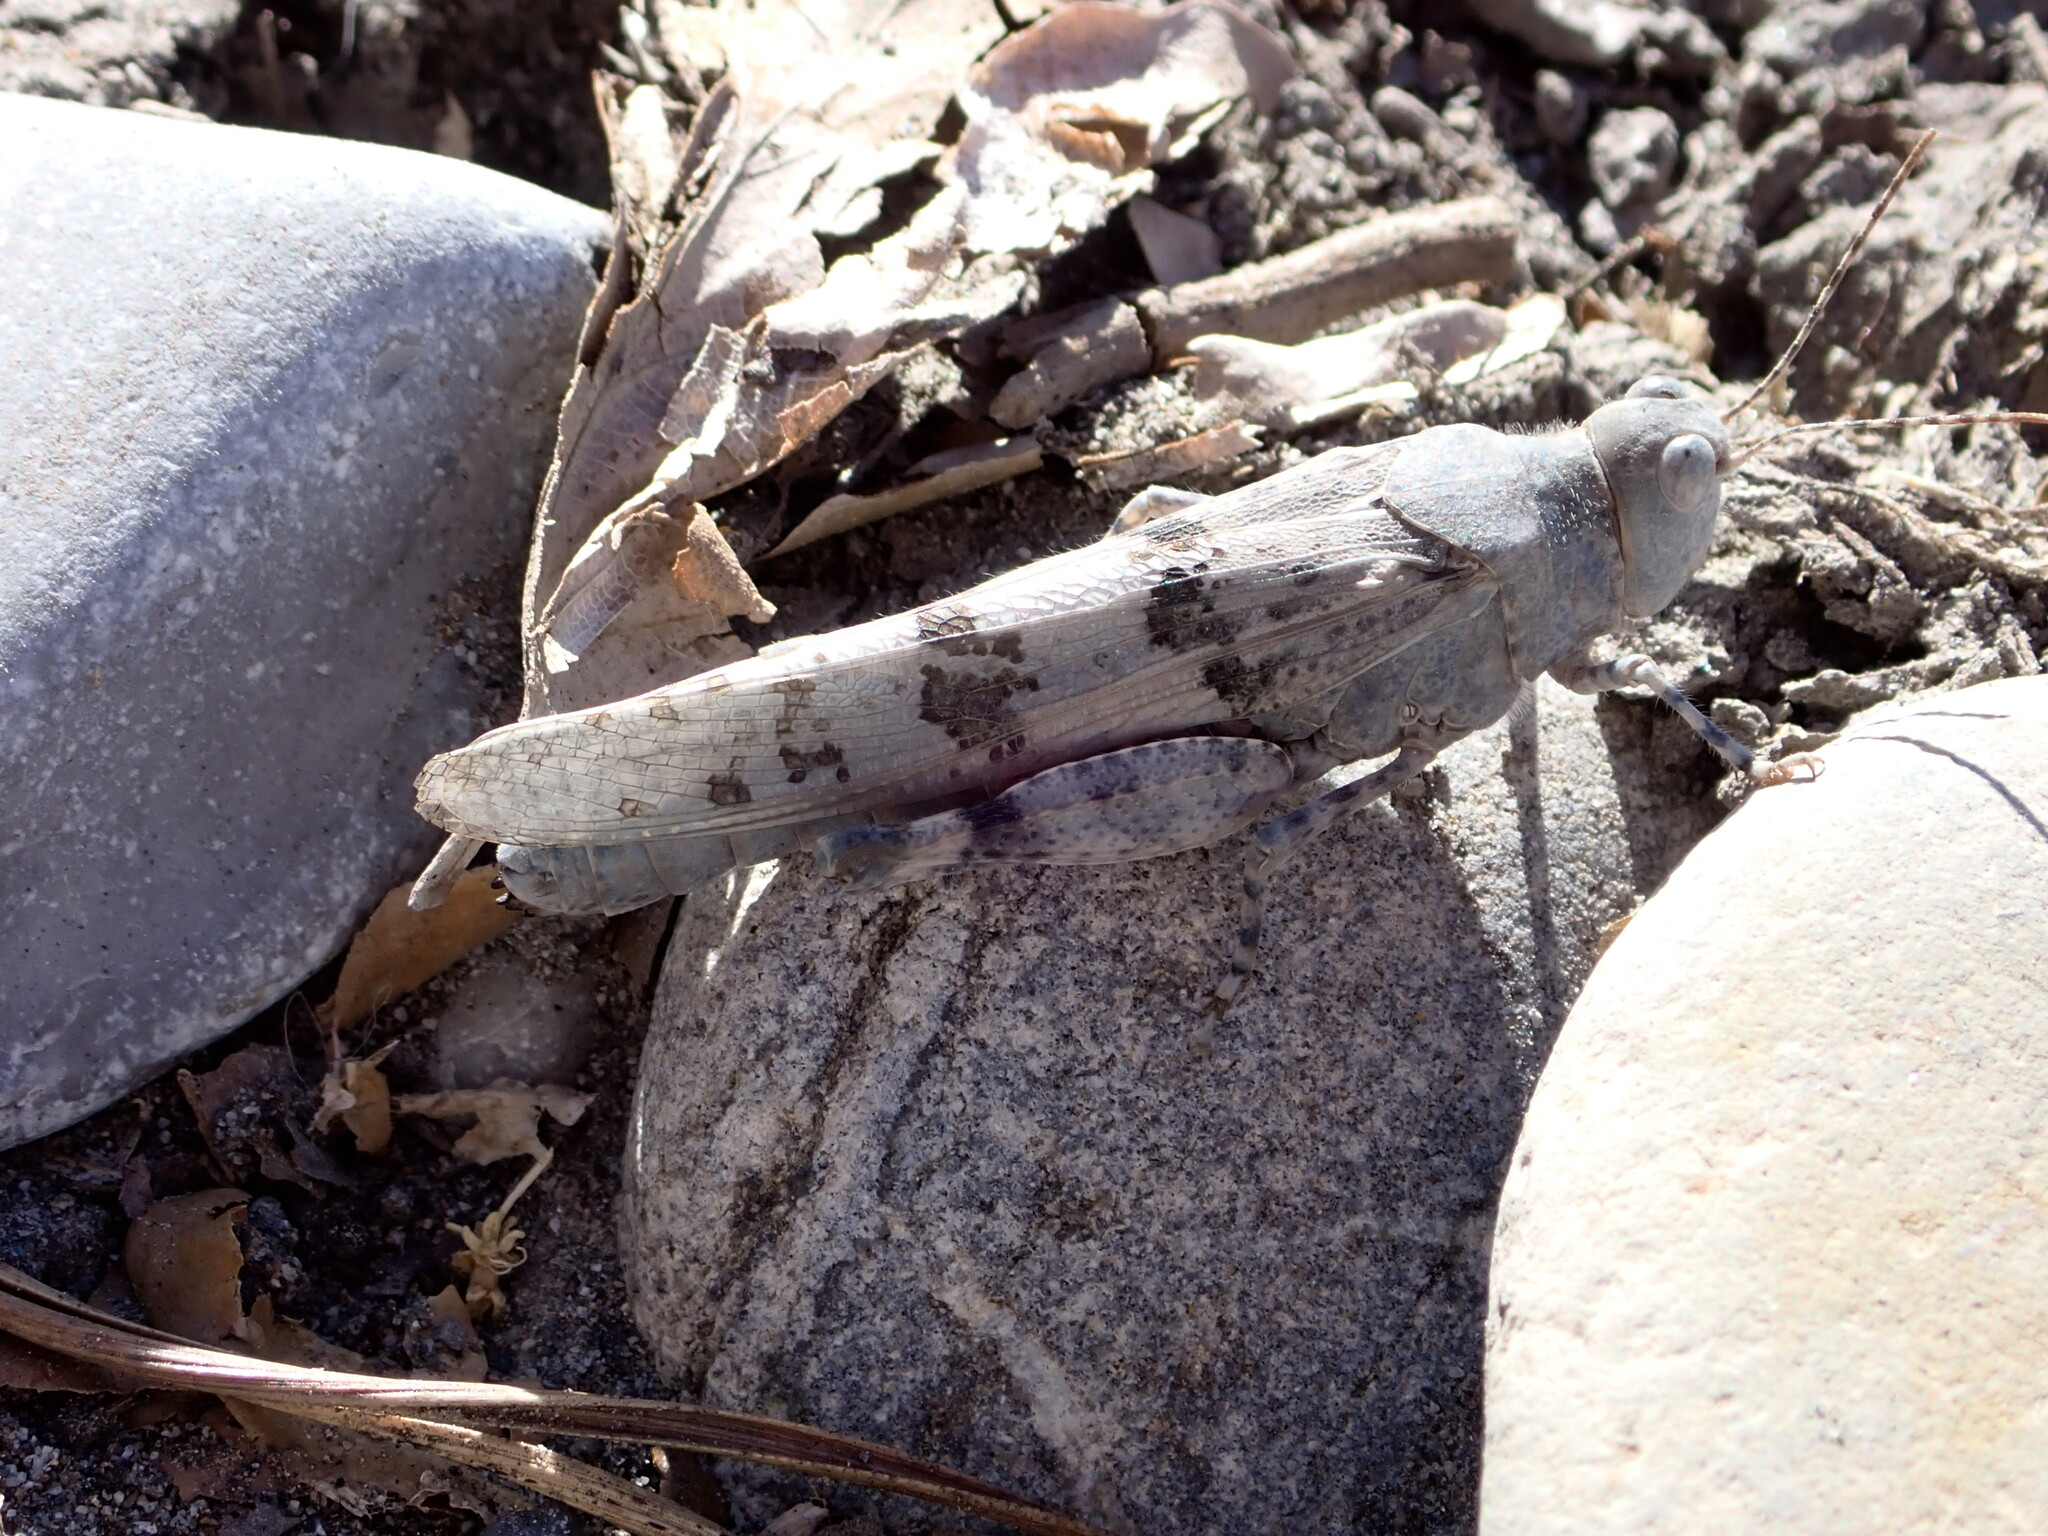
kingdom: Animalia
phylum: Arthropoda
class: Insecta
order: Orthoptera
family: Acrididae
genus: Sphingonotus
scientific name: Sphingonotus caerulans
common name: Blue-winged locust
